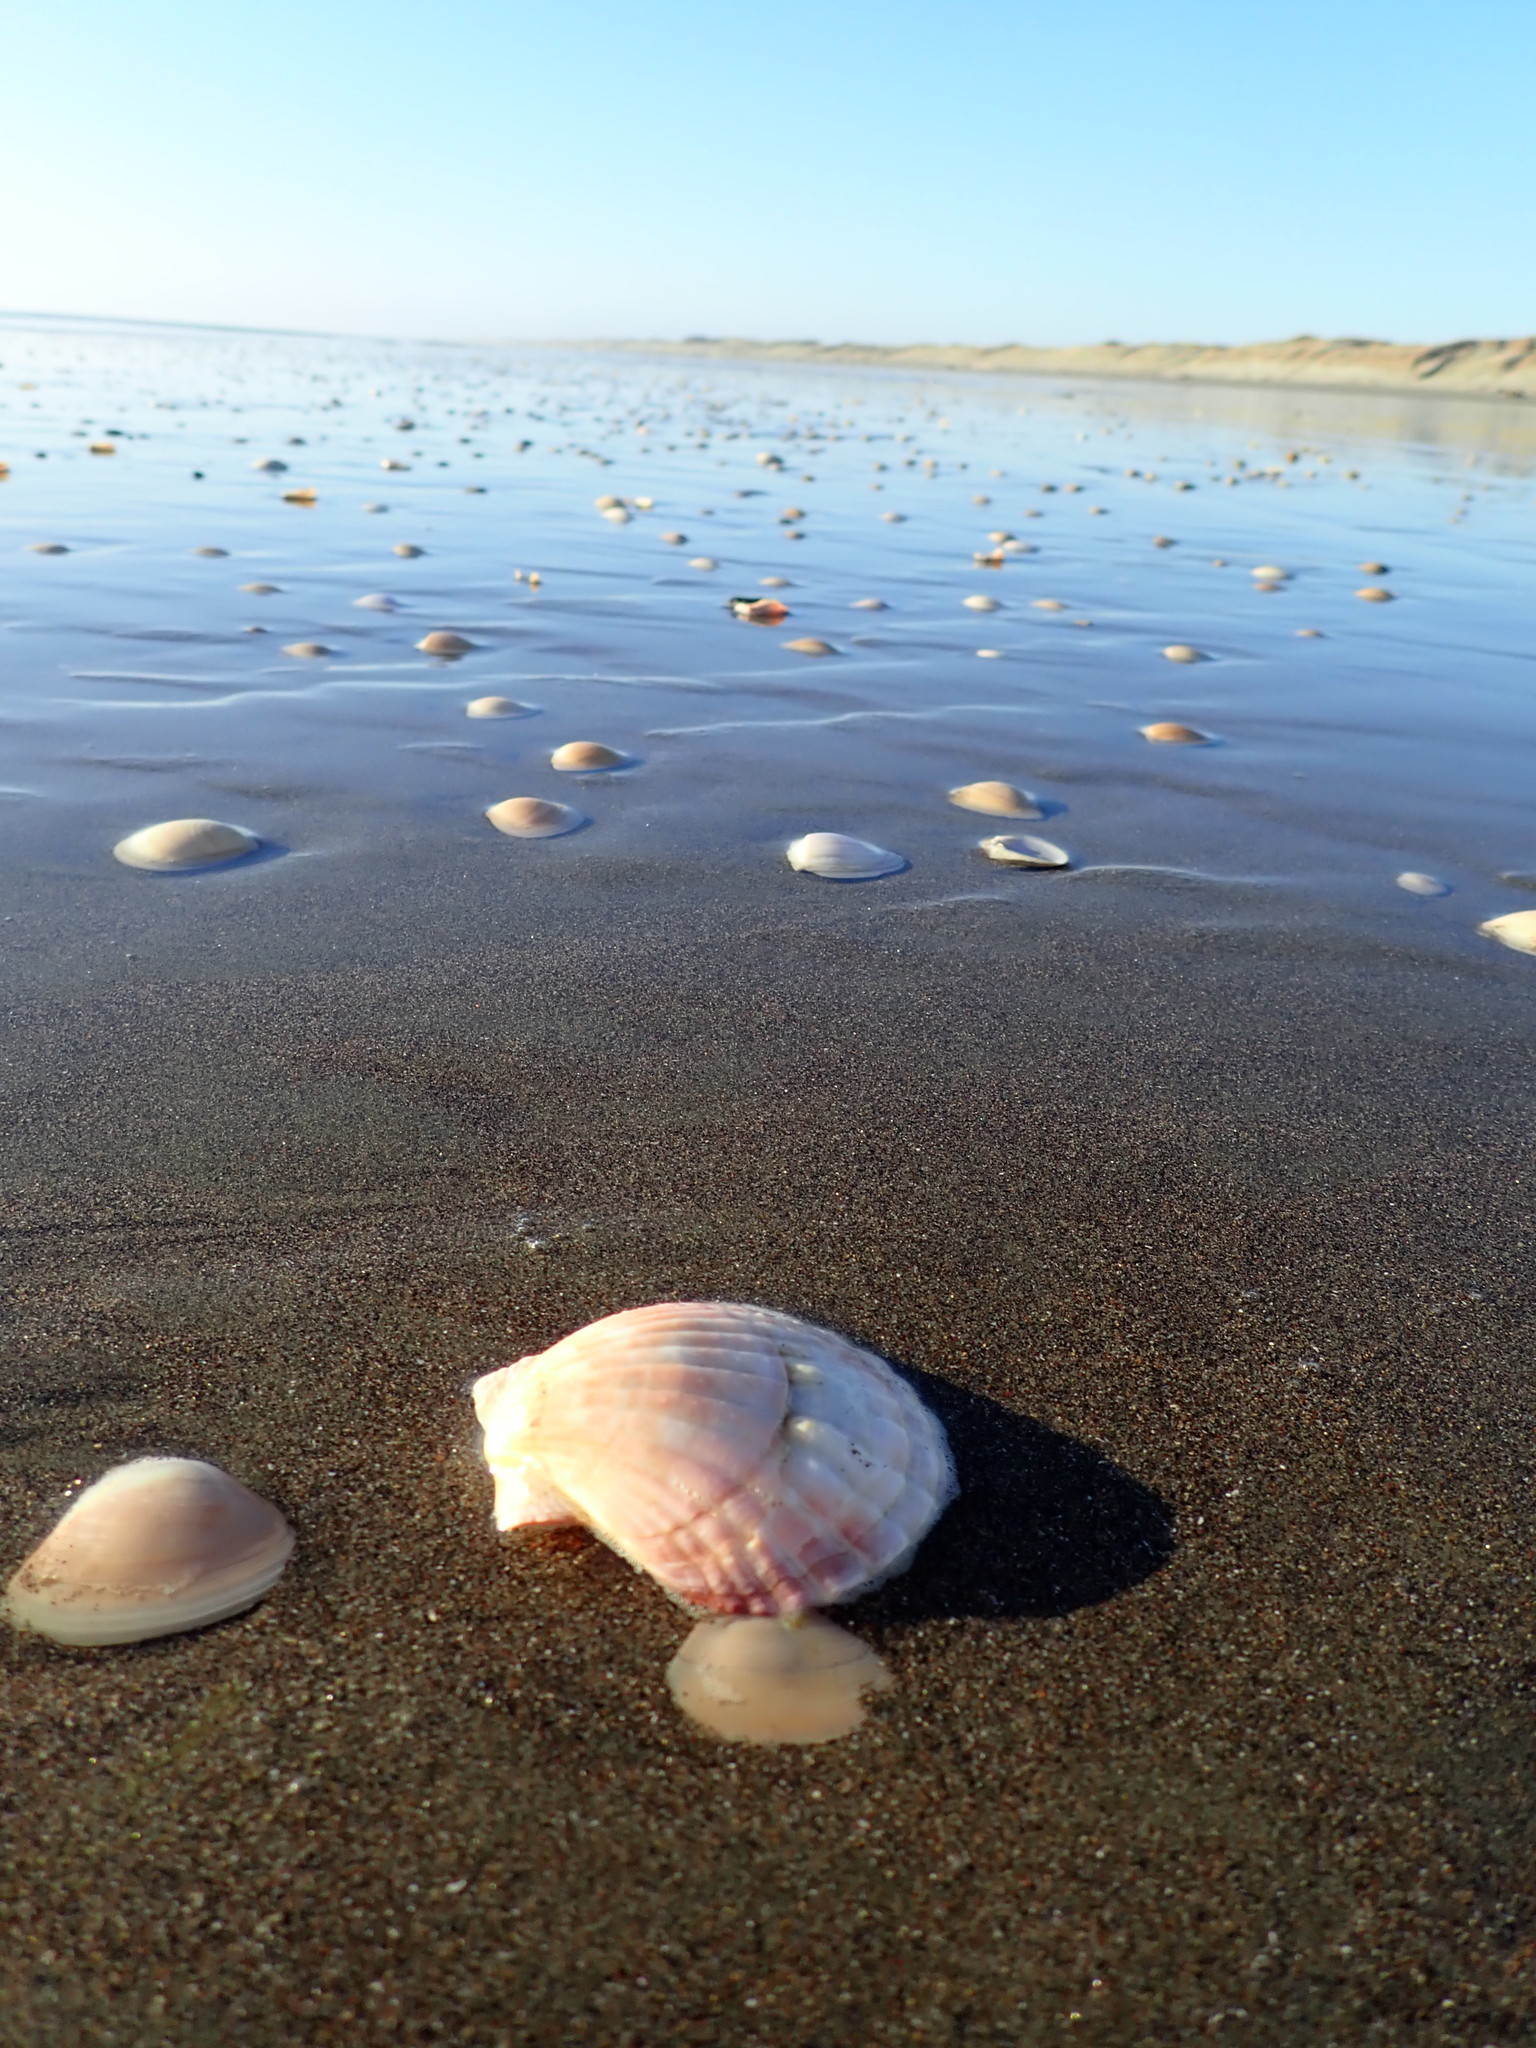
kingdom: Animalia
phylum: Mollusca
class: Bivalvia
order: Pectinida
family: Pectinidae
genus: Pecten
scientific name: Pecten novaezelandiae
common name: New zealand scallop
